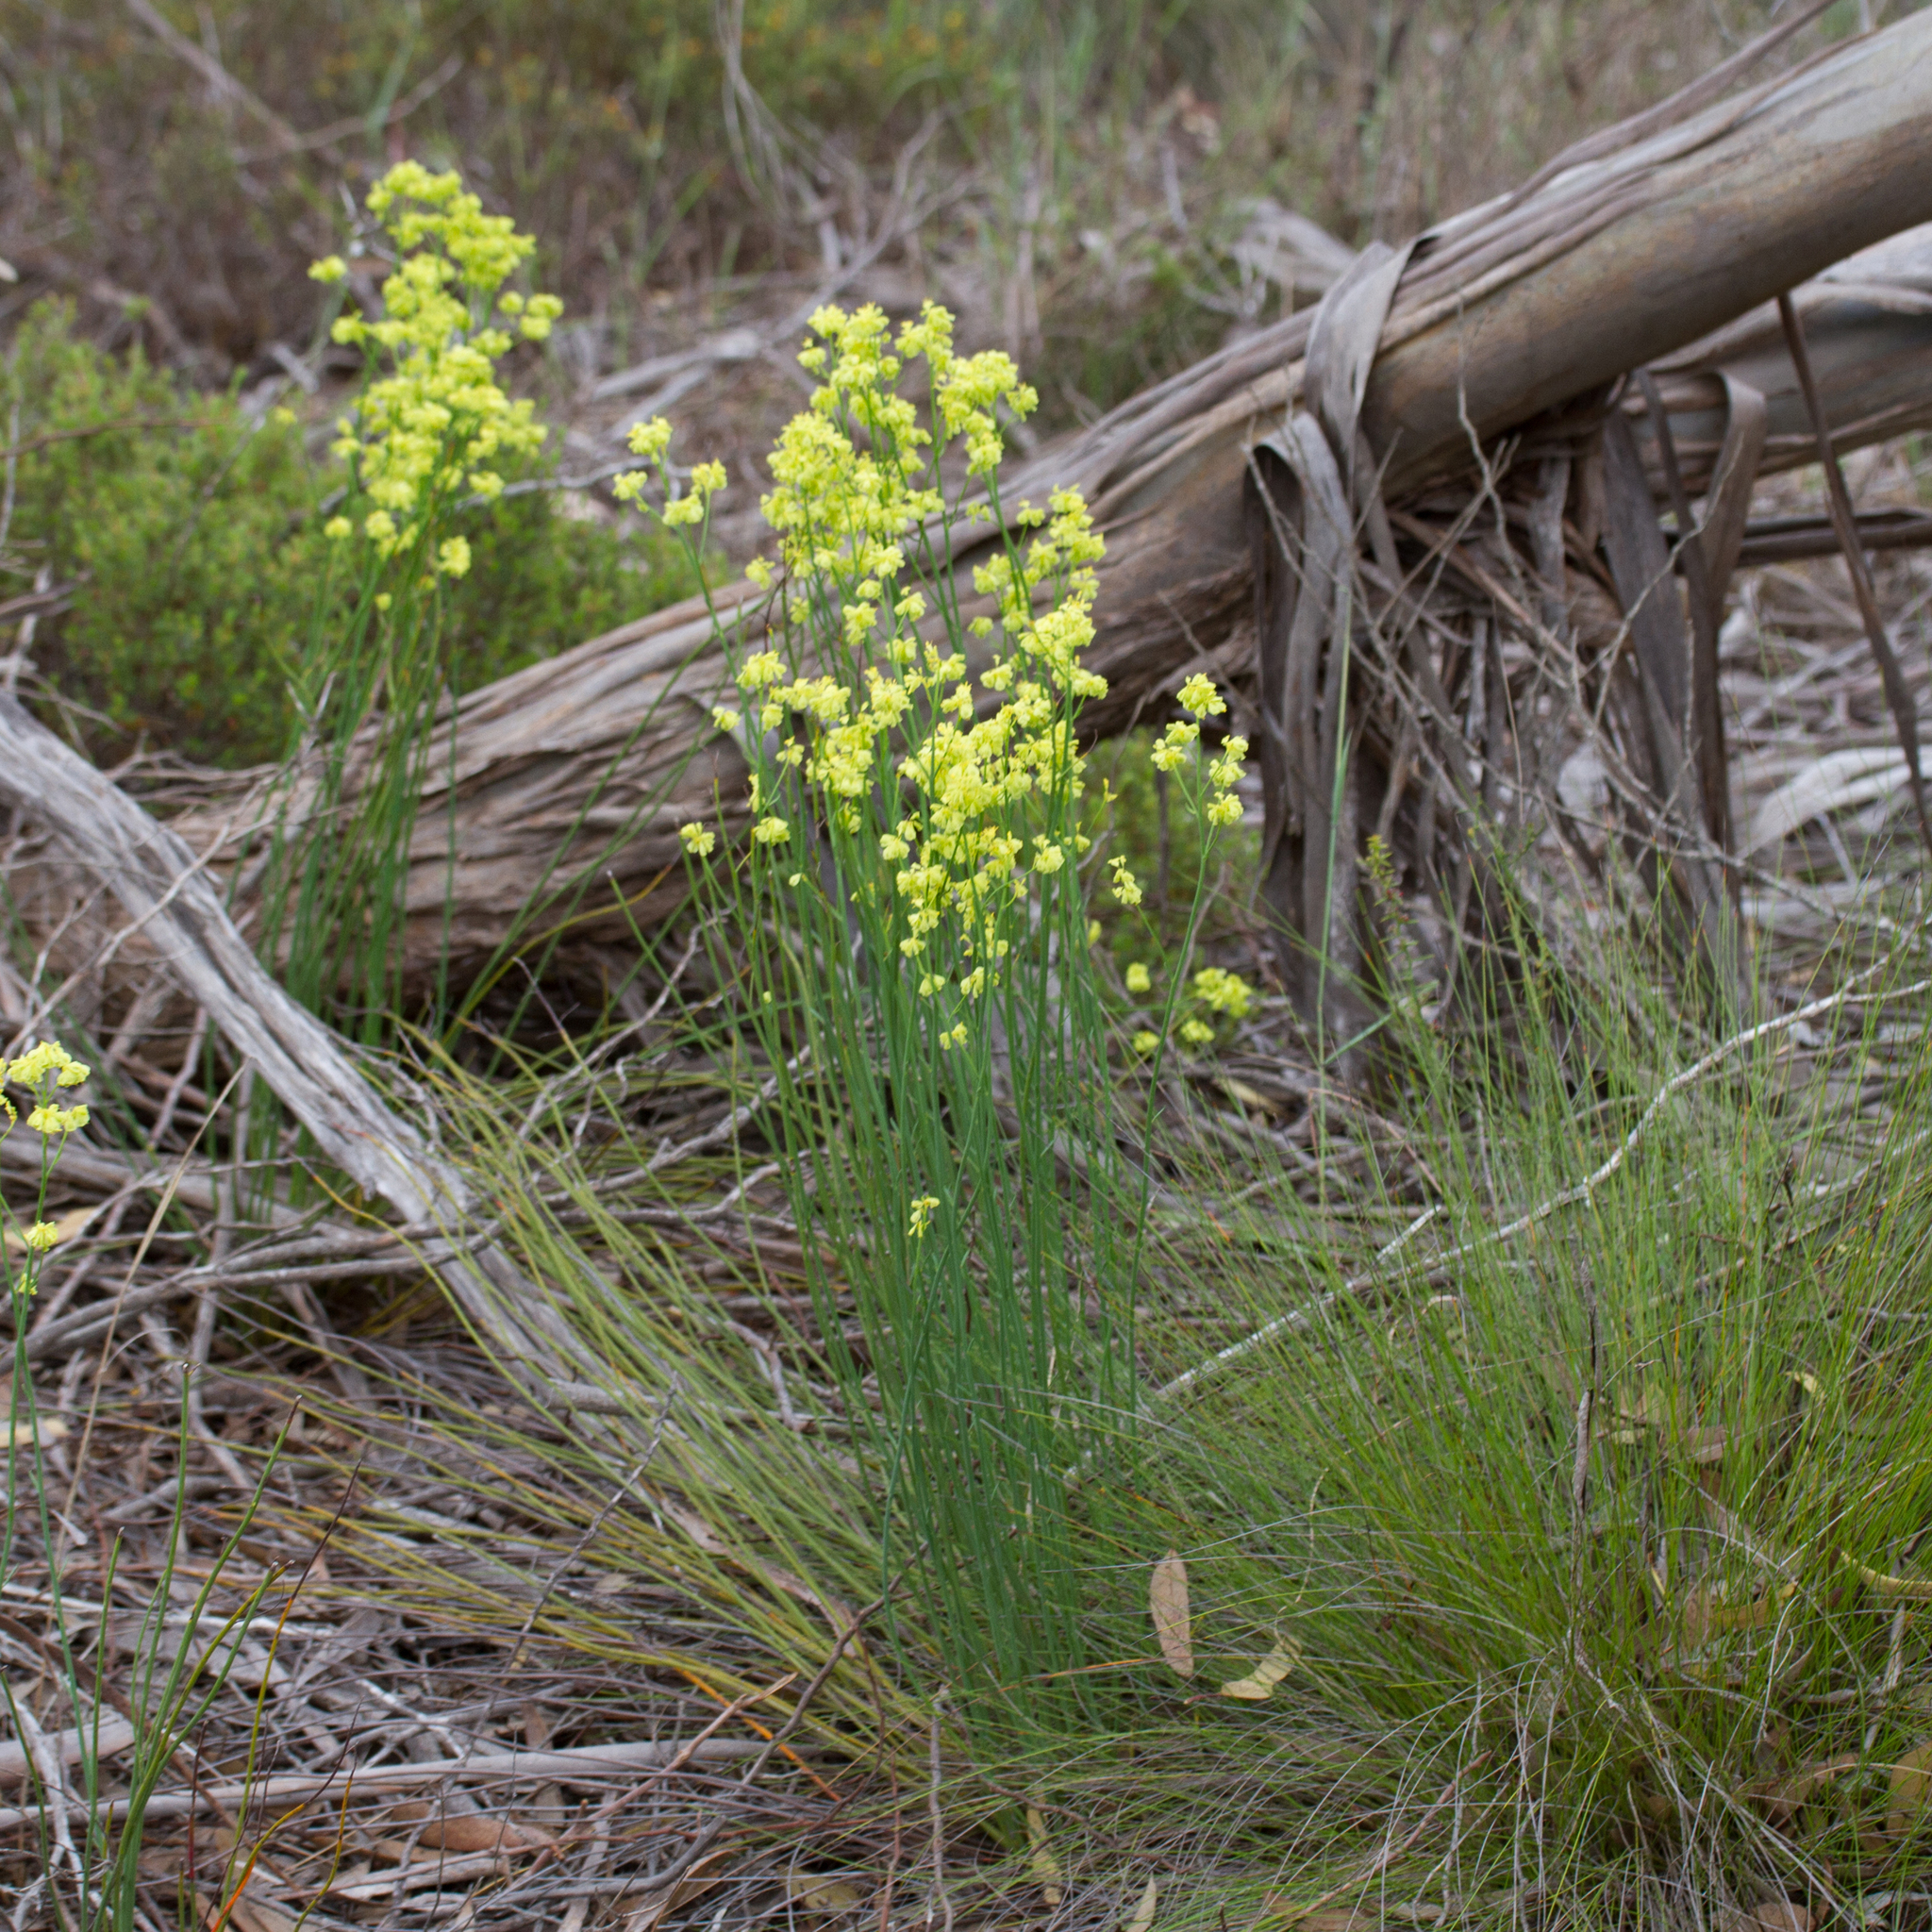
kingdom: Plantae
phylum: Tracheophyta
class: Magnoliopsida
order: Saxifragales
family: Haloragaceae
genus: Glischrocaryon
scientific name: Glischrocaryon behrii
